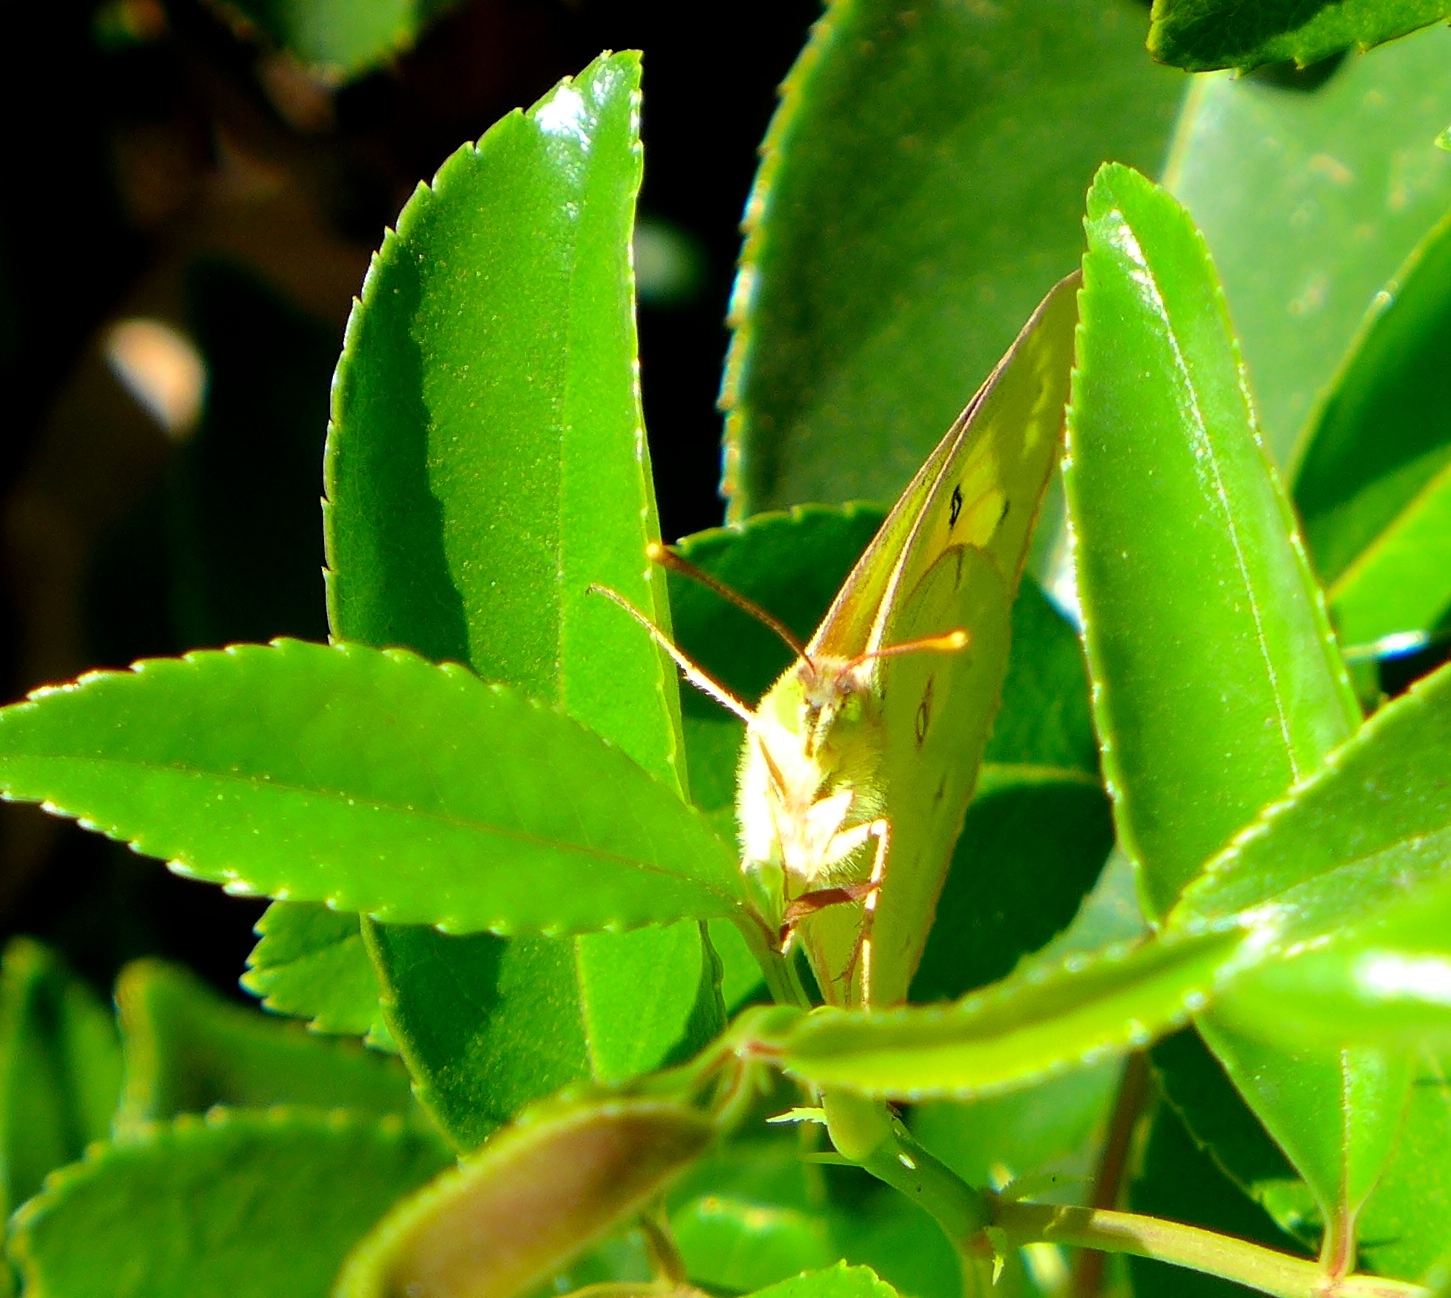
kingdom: Animalia
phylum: Arthropoda
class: Insecta
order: Lepidoptera
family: Pieridae
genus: Colias
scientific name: Colias eurytheme
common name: Alfalfa butterfly
